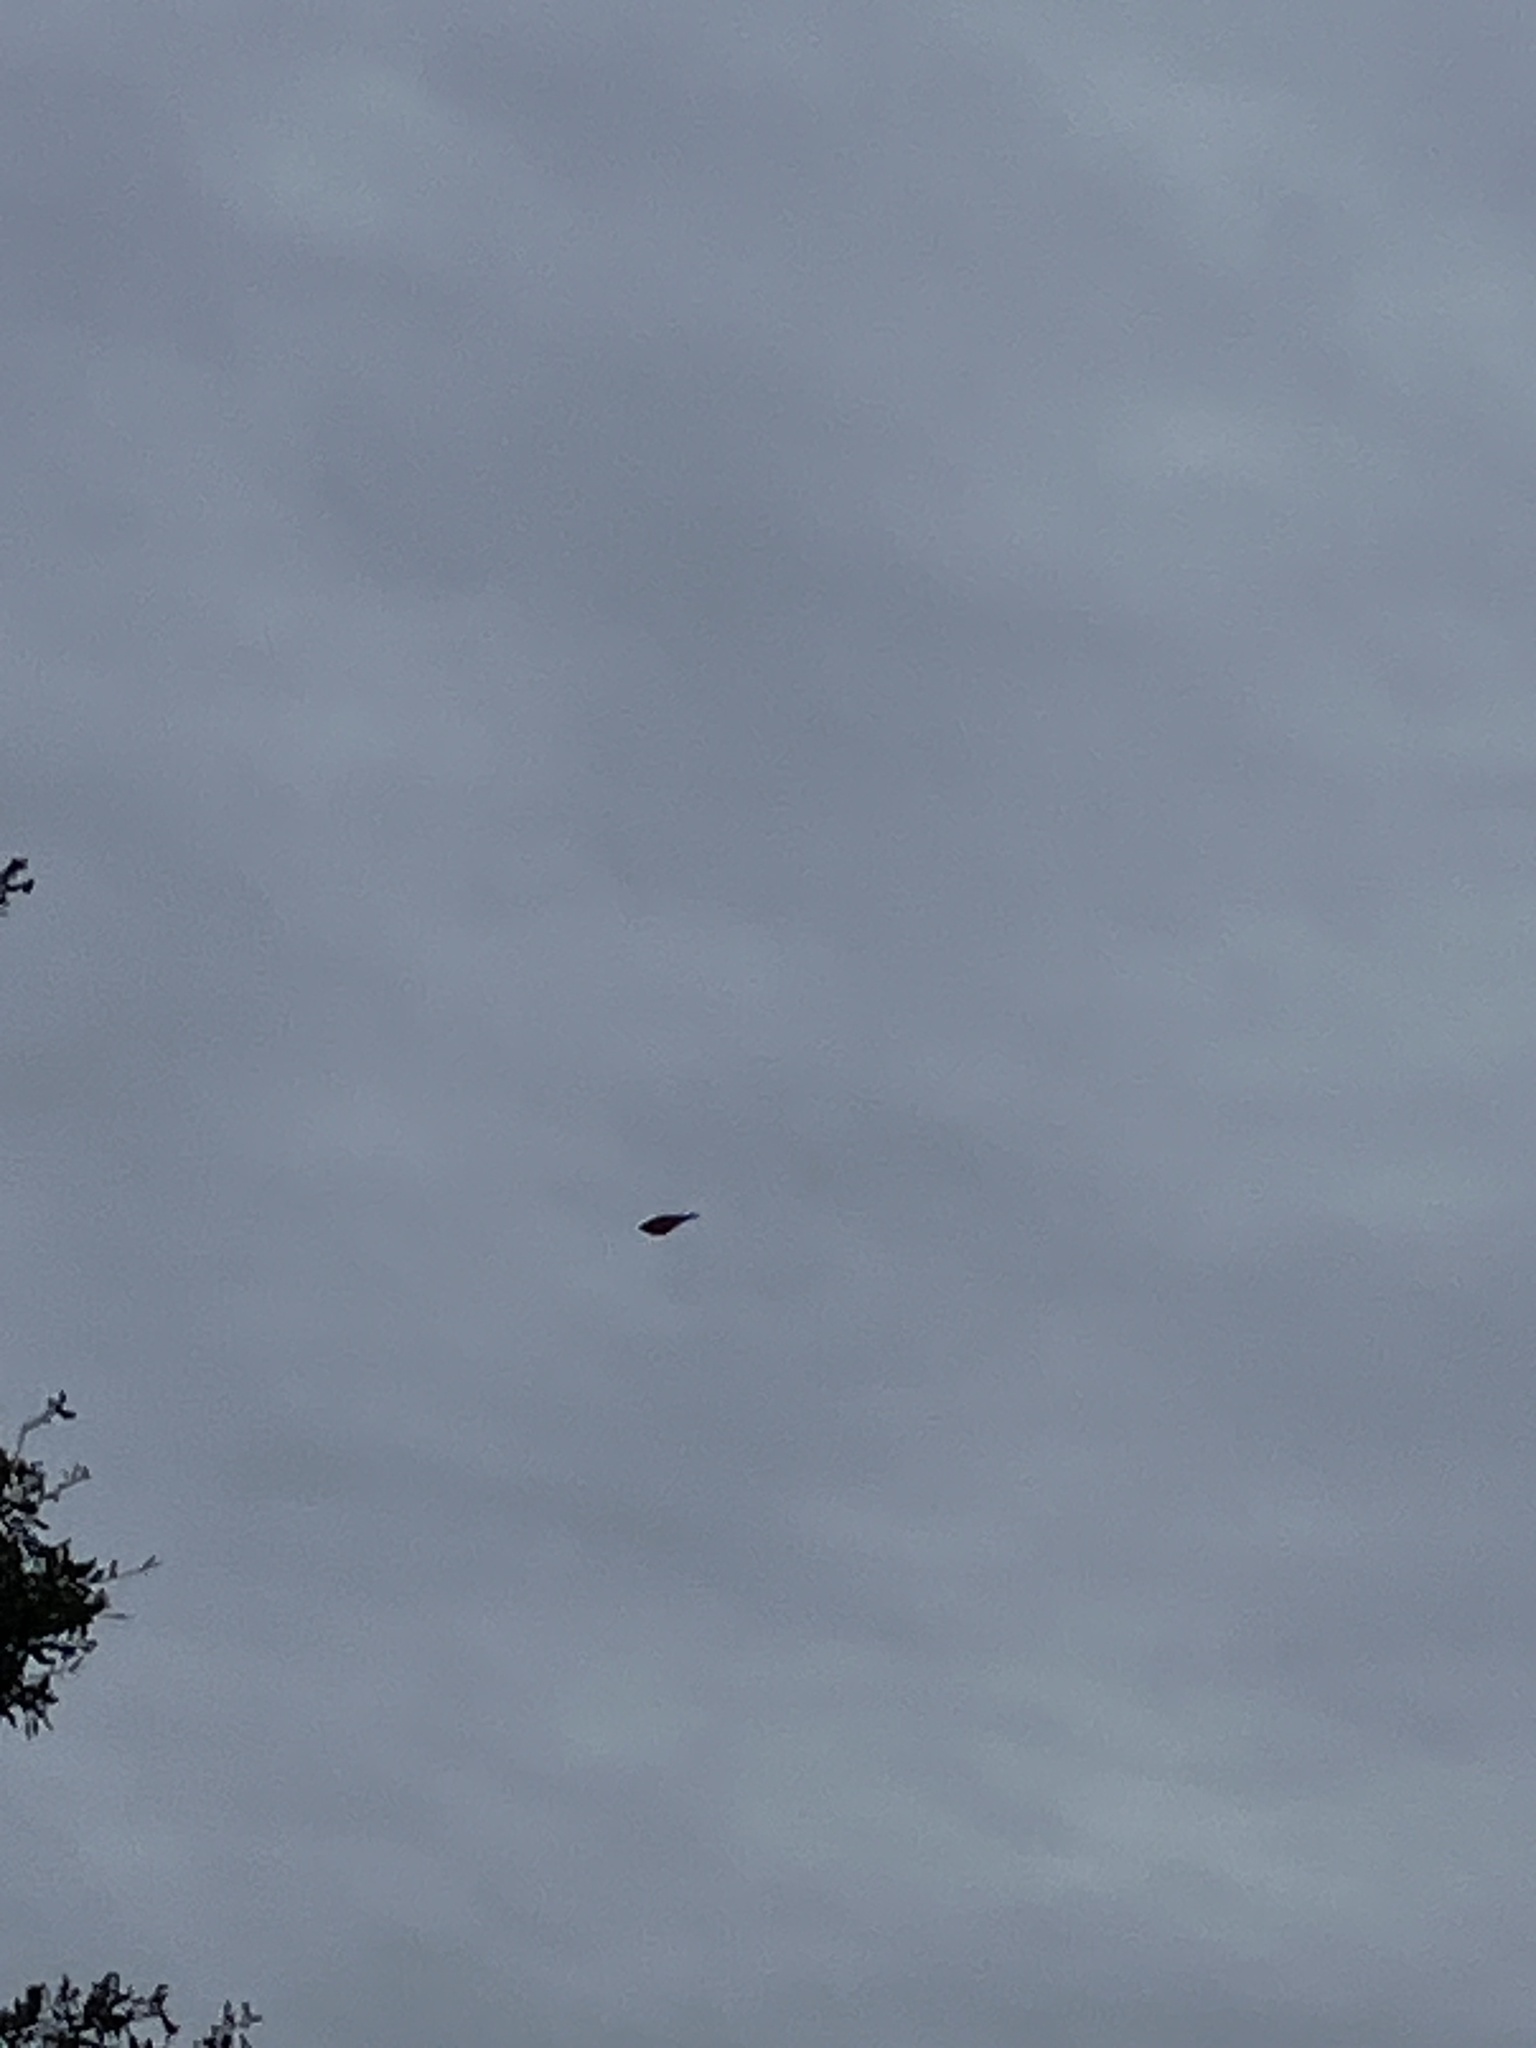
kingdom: Animalia
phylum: Chordata
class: Aves
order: Passeriformes
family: Parulidae
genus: Setophaga
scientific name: Setophaga coronata
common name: Myrtle warbler
